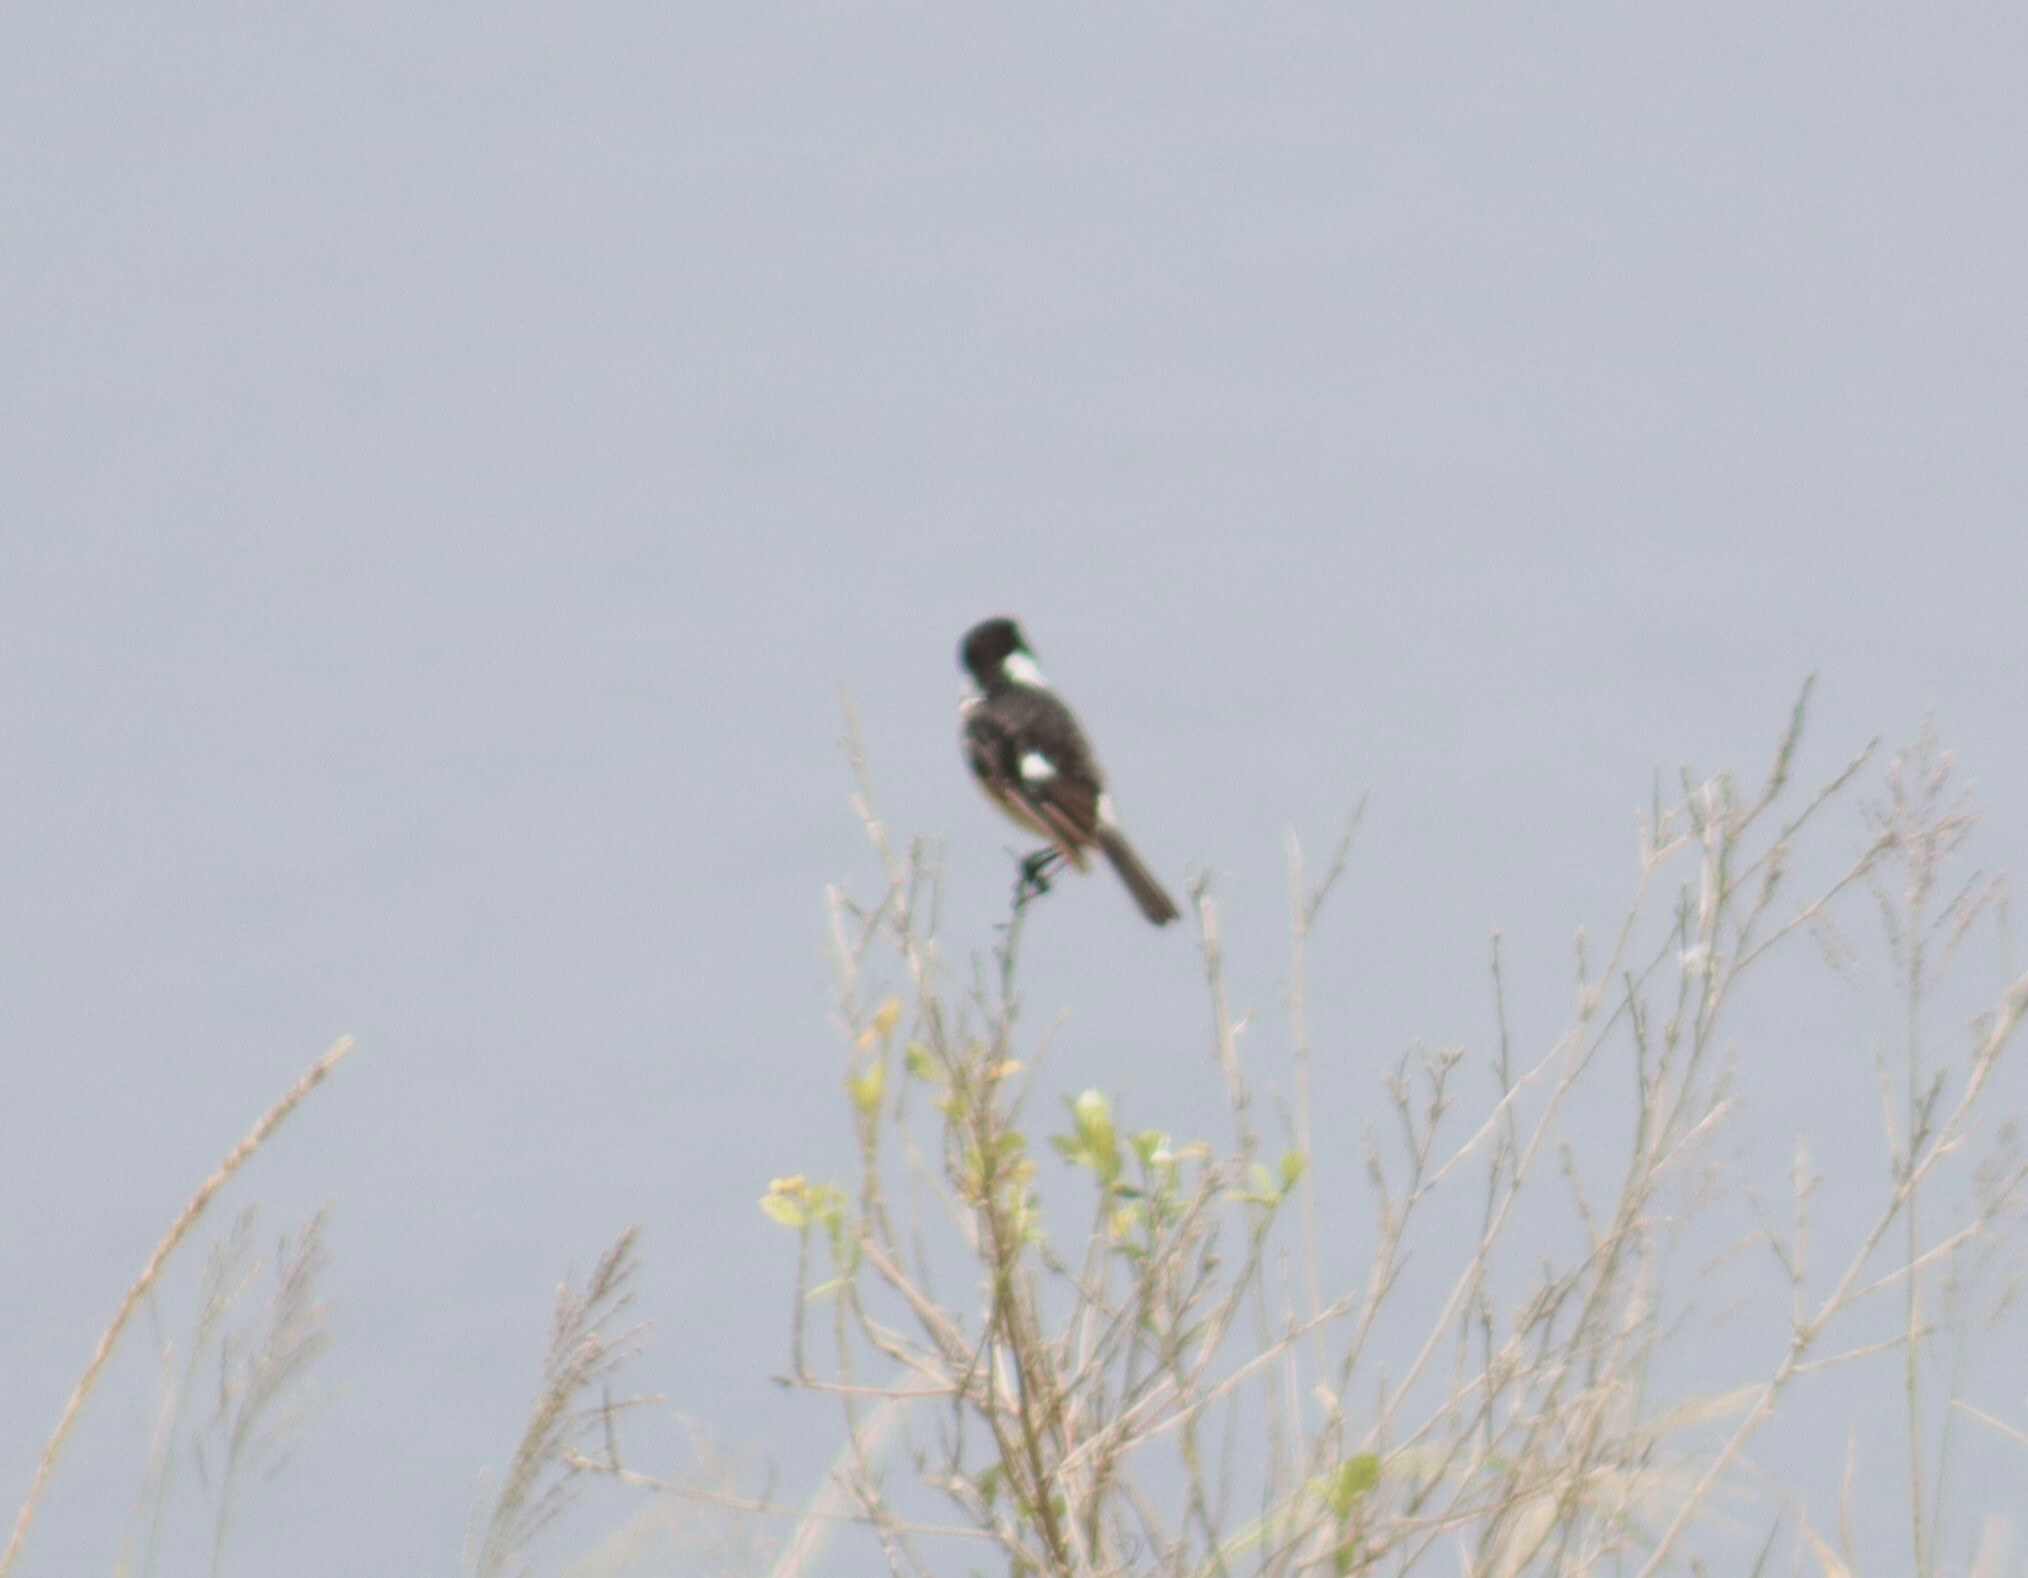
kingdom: Animalia
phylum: Chordata
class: Aves
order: Passeriformes
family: Muscicapidae
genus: Saxicola
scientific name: Saxicola torquatus
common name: African stonechat
